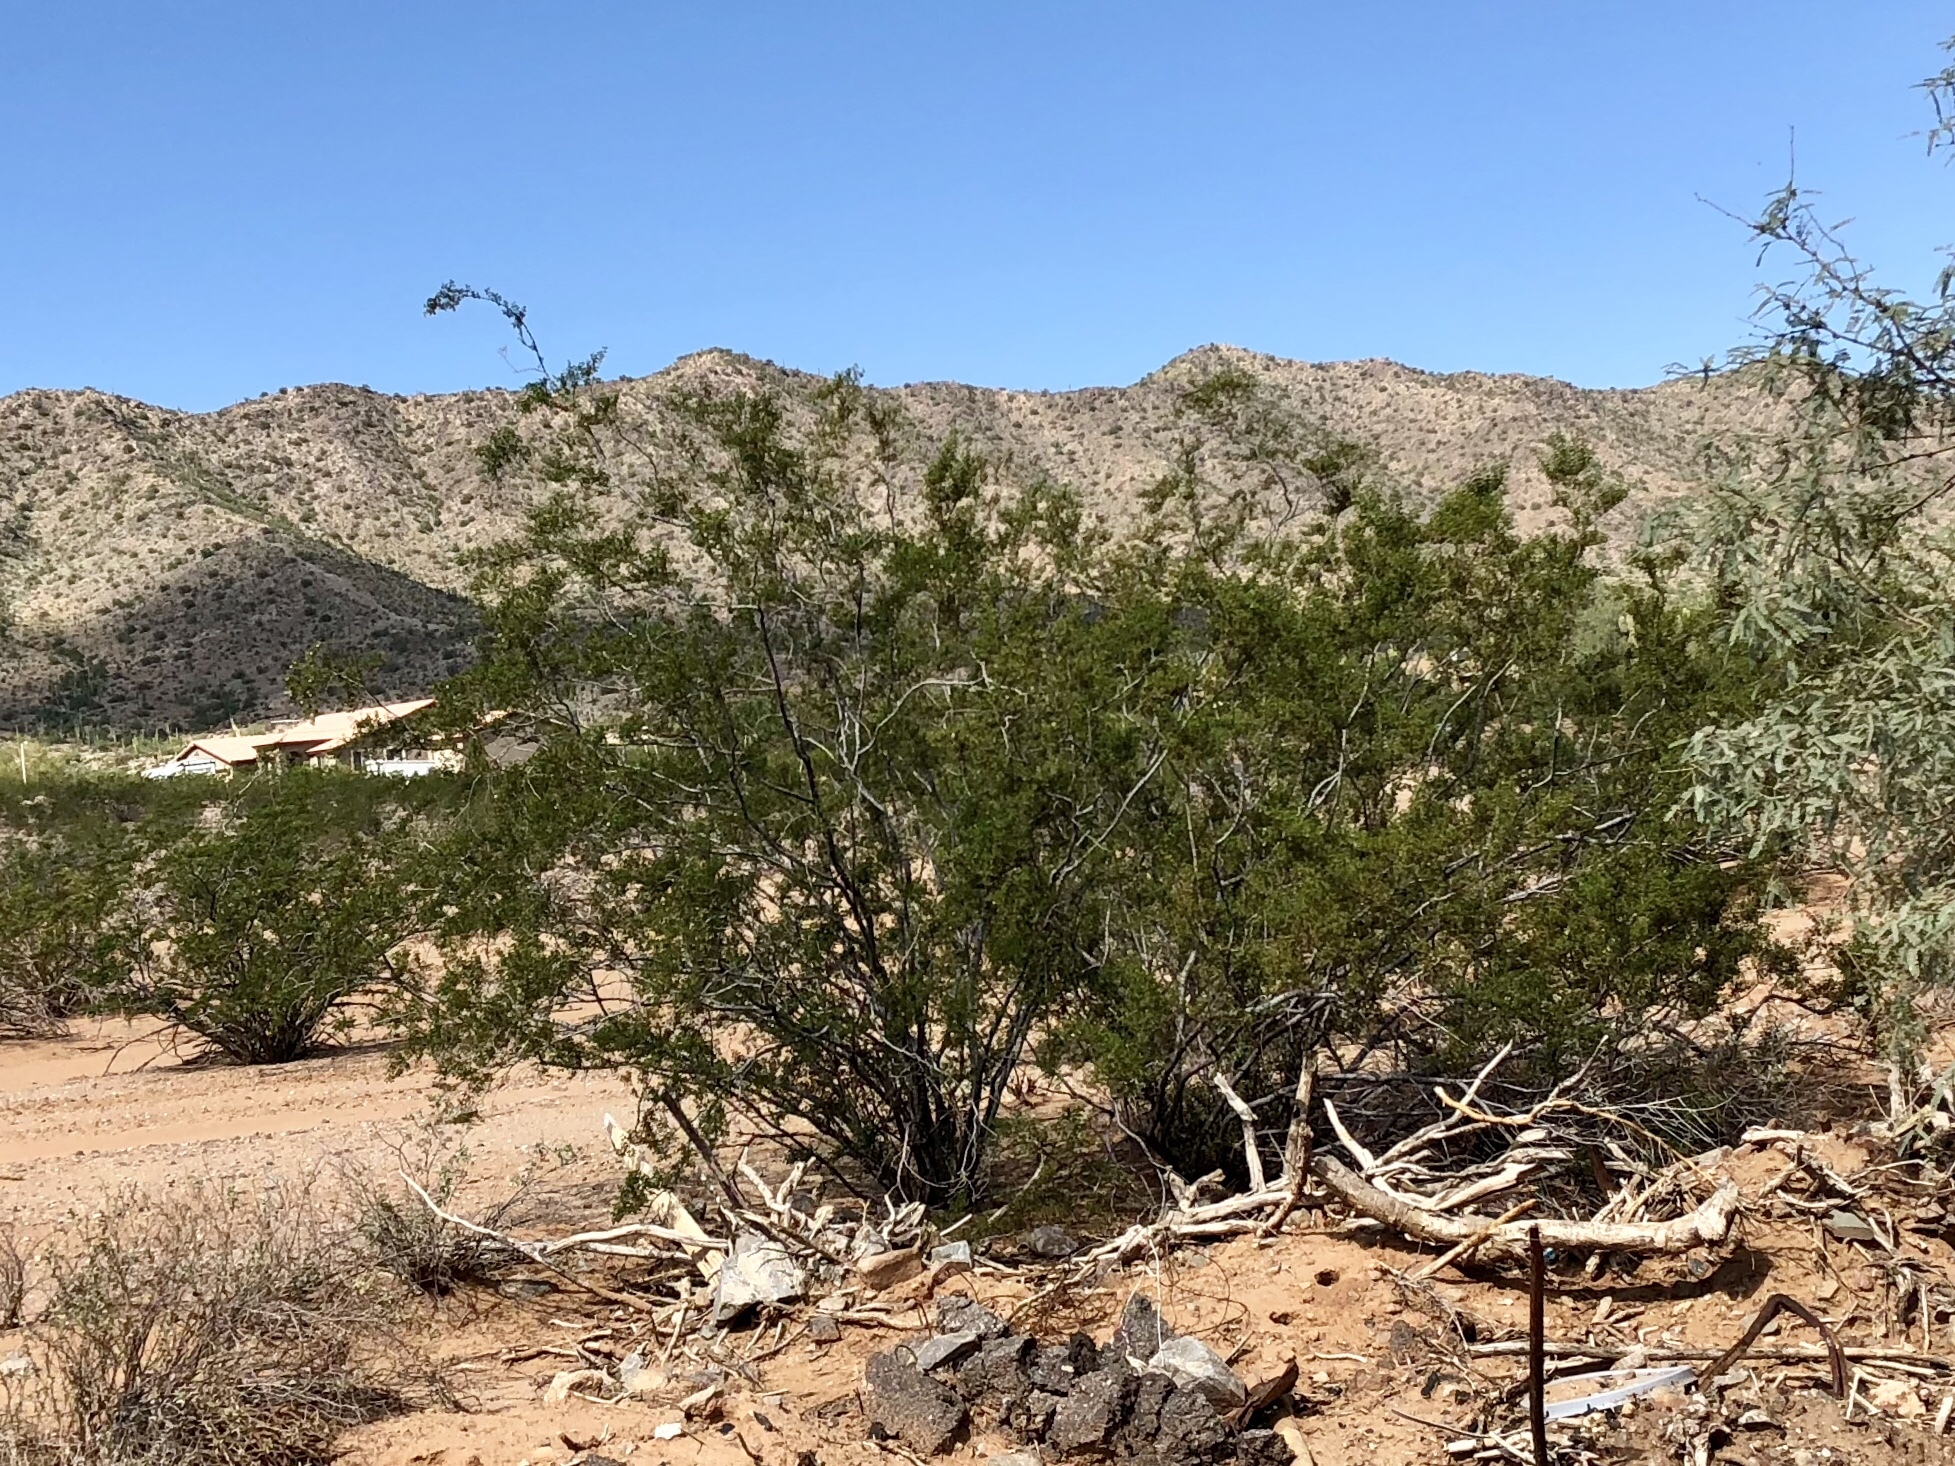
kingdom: Plantae
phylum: Tracheophyta
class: Magnoliopsida
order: Zygophyllales
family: Zygophyllaceae
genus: Larrea
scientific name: Larrea tridentata
